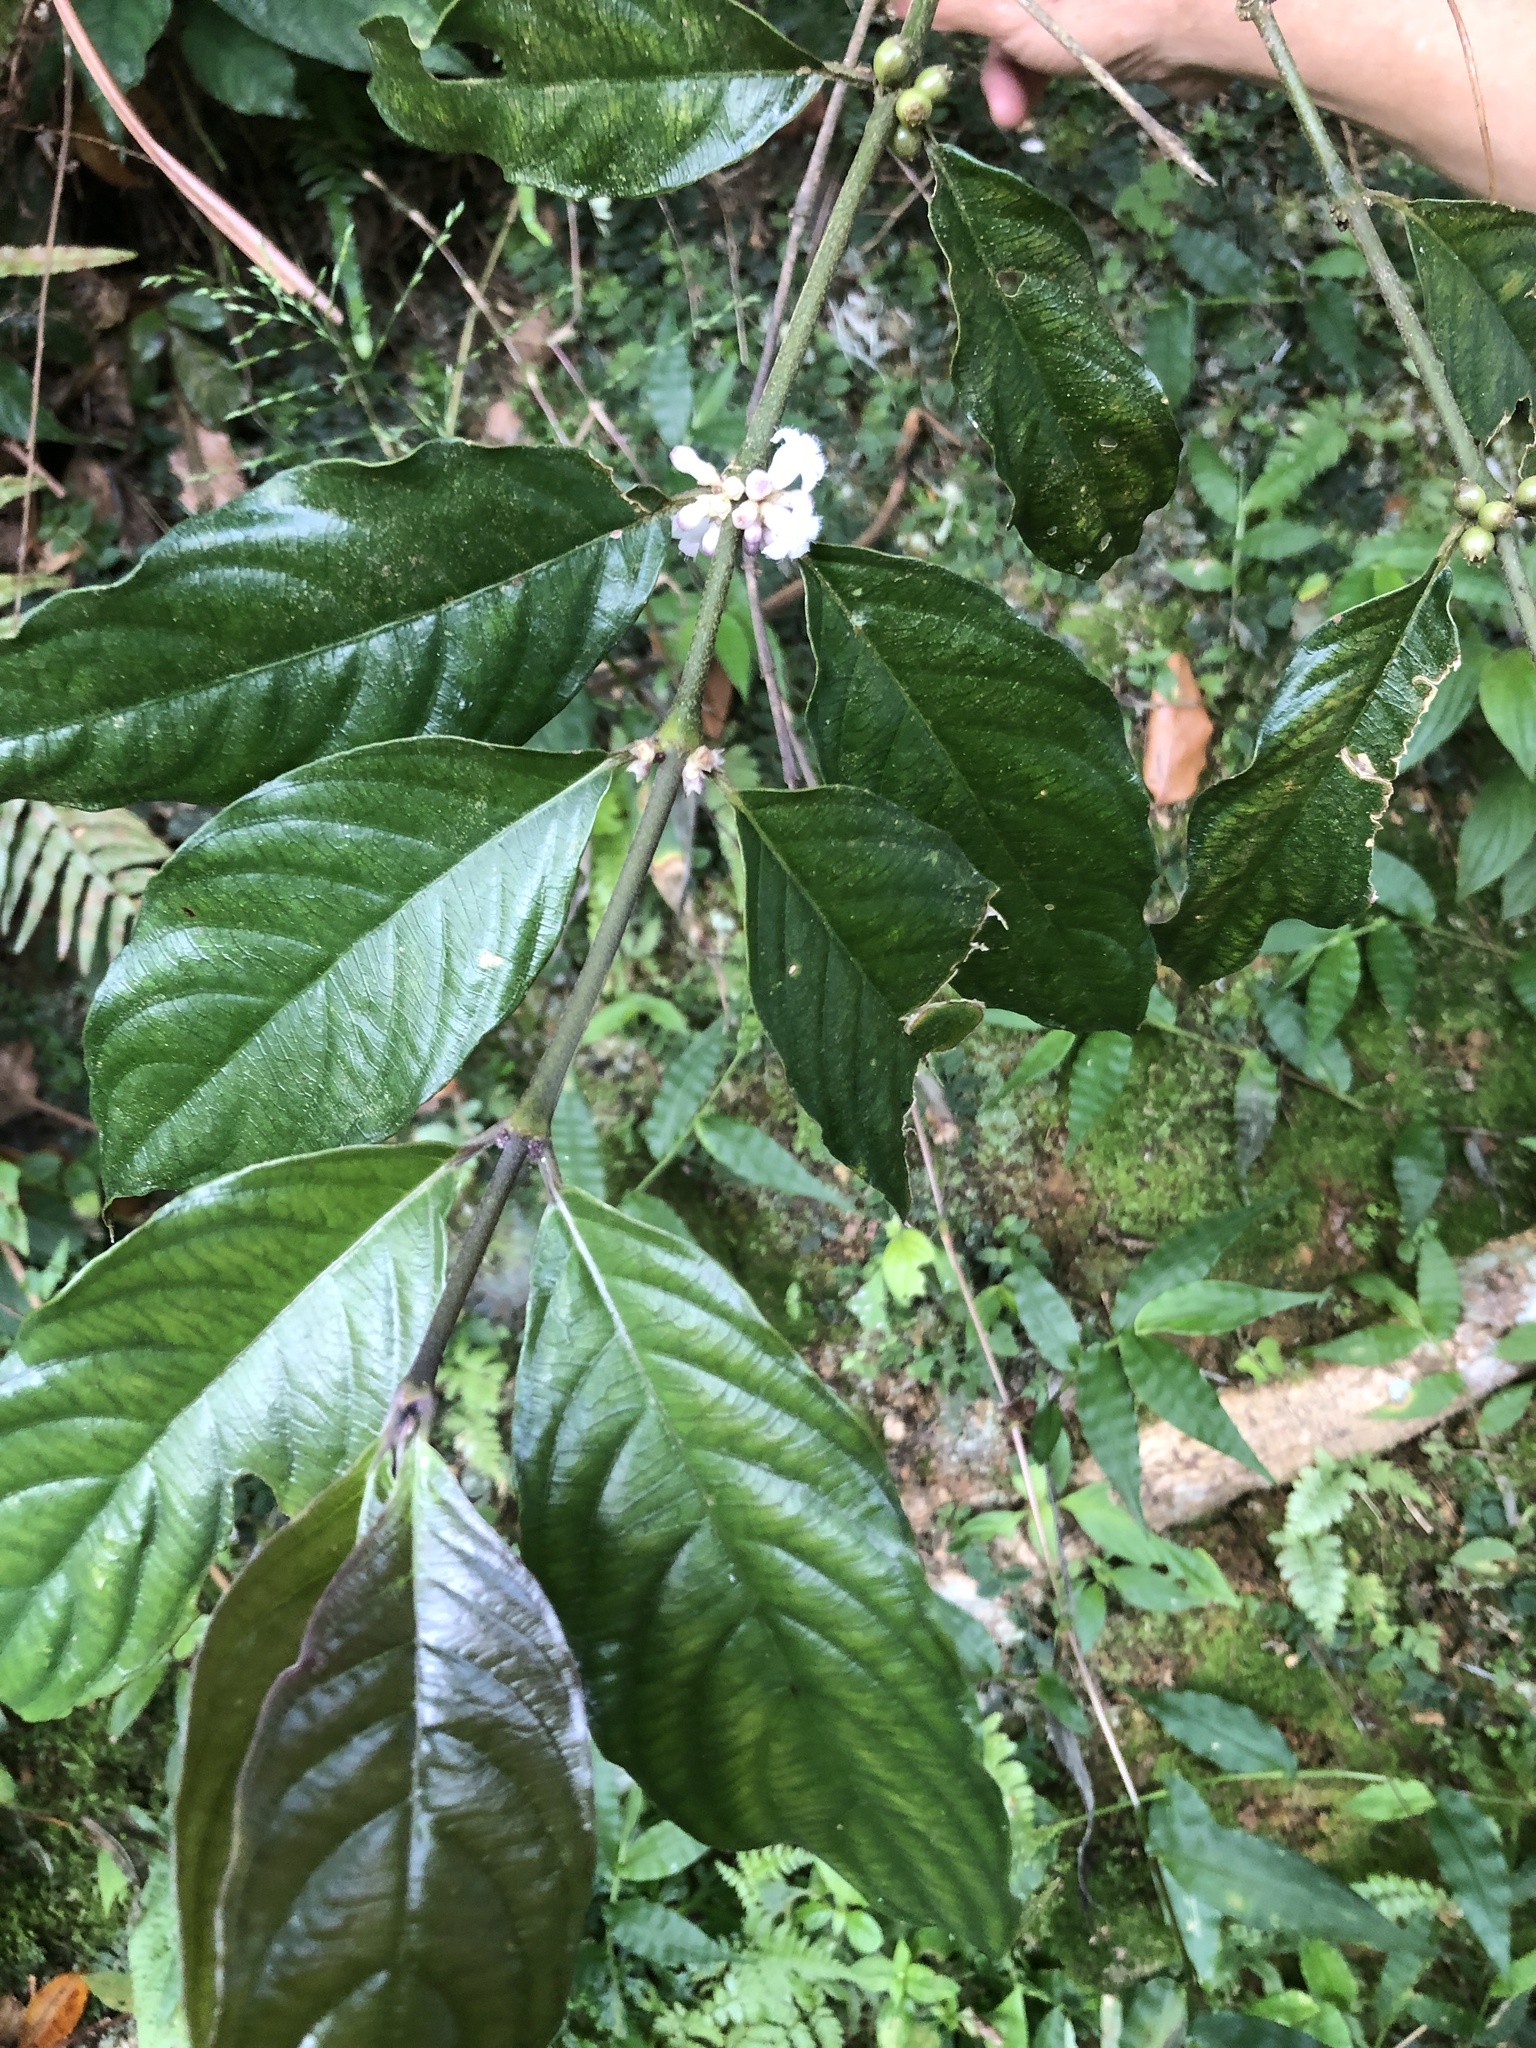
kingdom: Plantae
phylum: Tracheophyta
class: Magnoliopsida
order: Gentianales
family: Rubiaceae
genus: Lasianthus
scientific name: Lasianthus fordii
